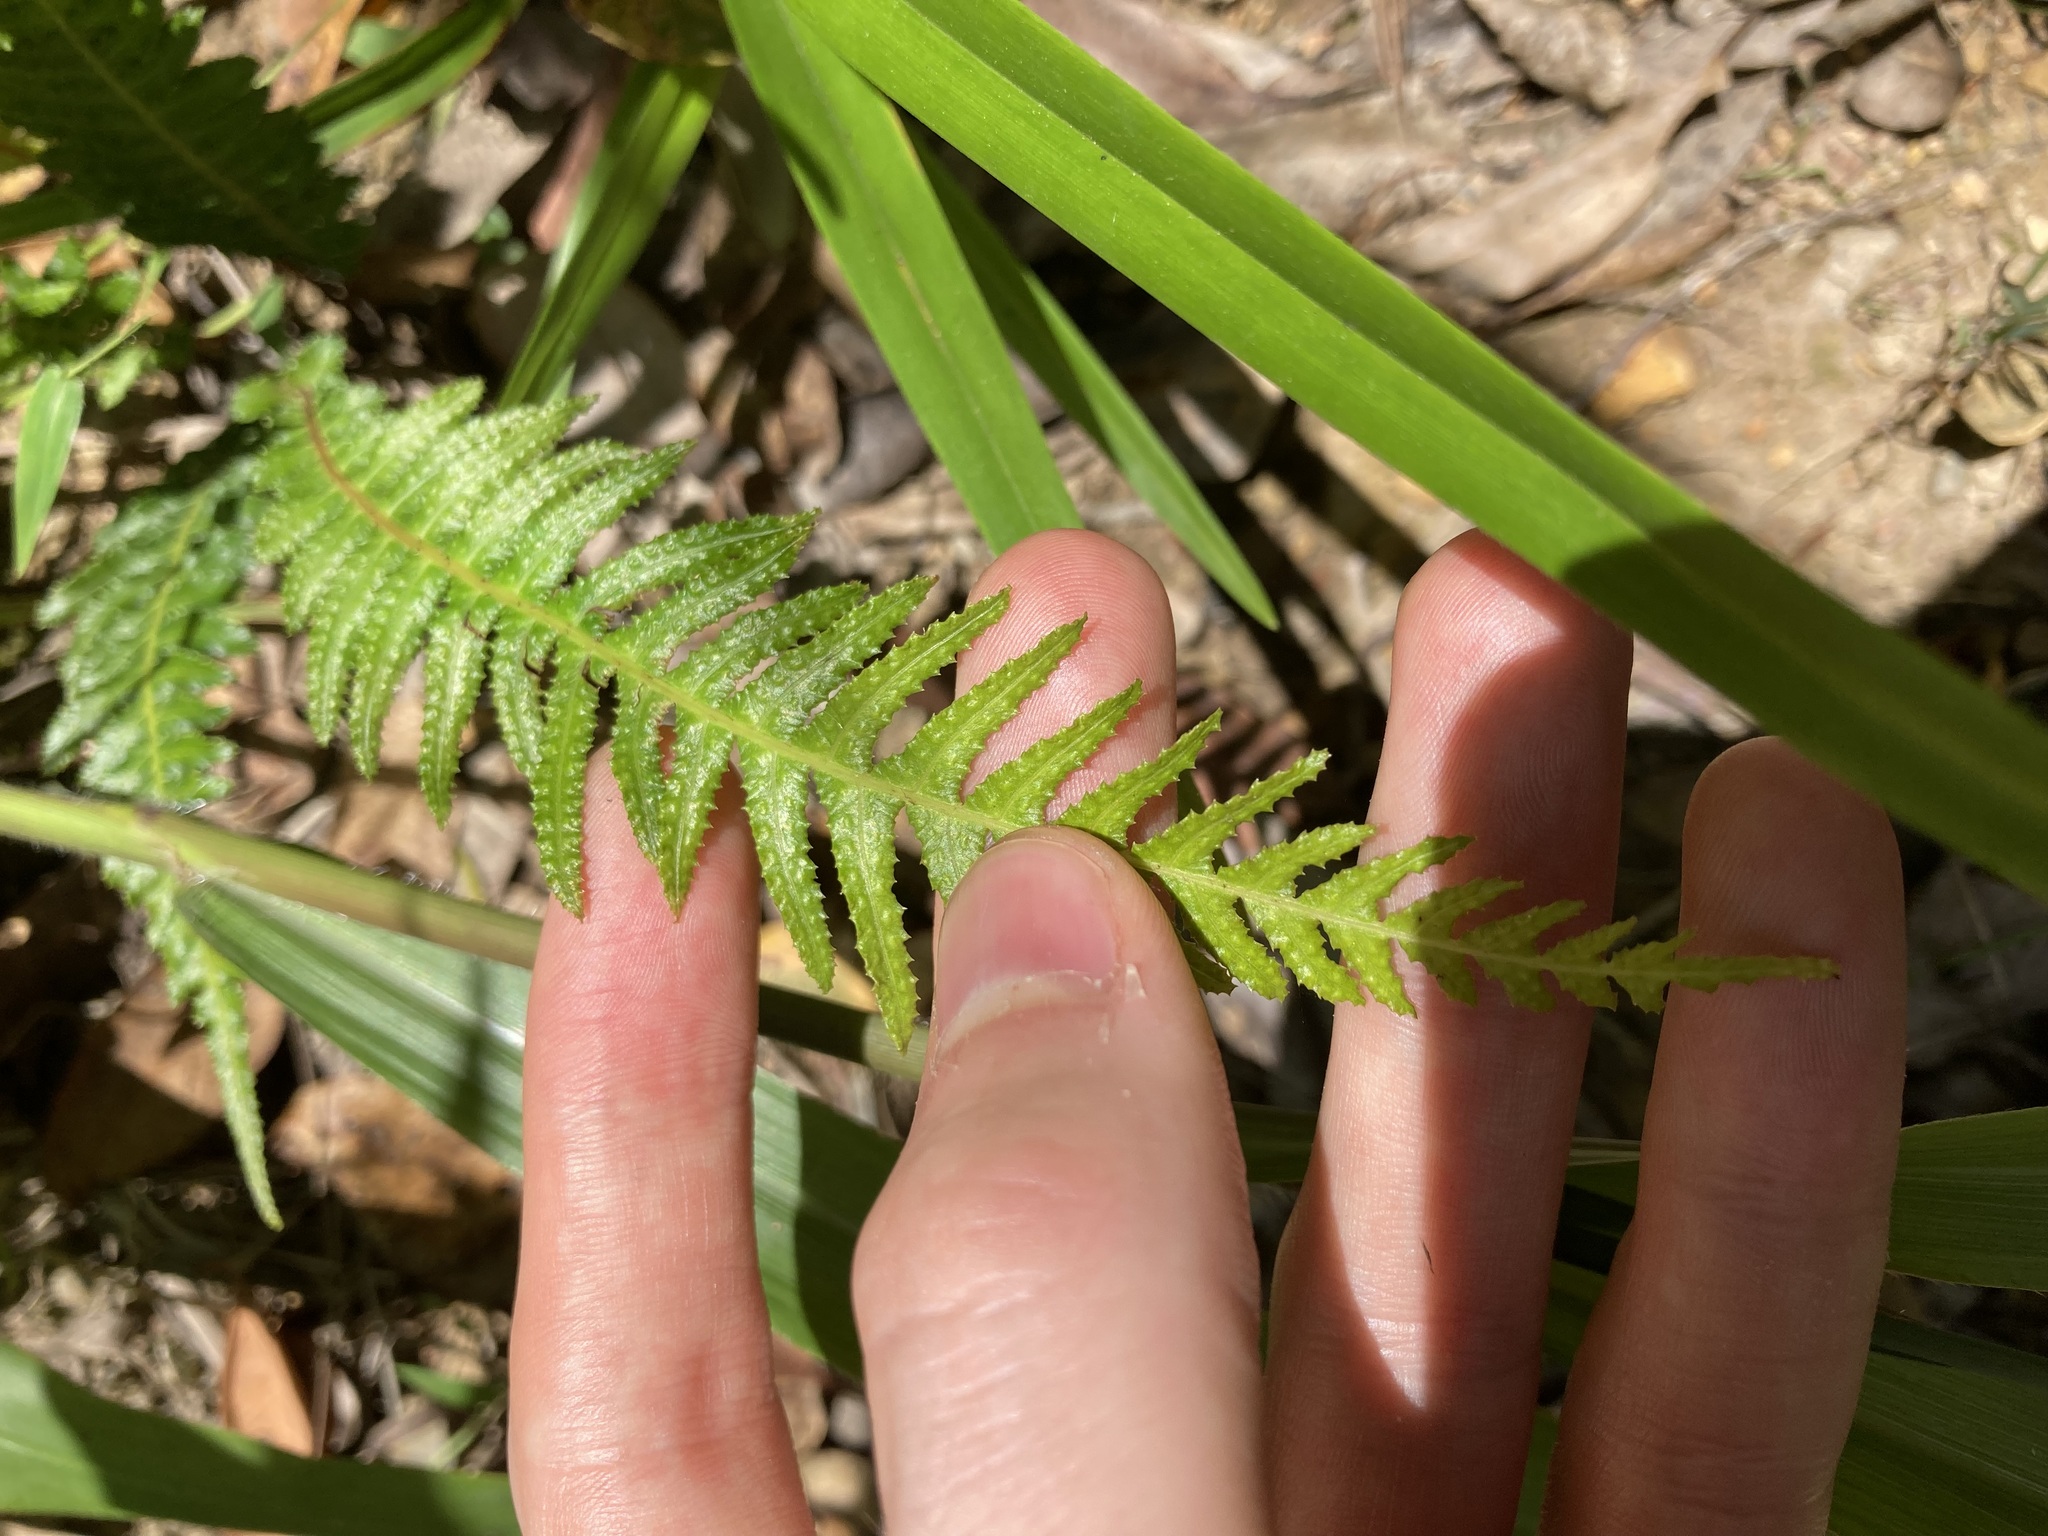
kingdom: Plantae
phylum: Tracheophyta
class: Polypodiopsida
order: Polypodiales
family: Blechnaceae
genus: Doodia
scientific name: Doodia aspera
